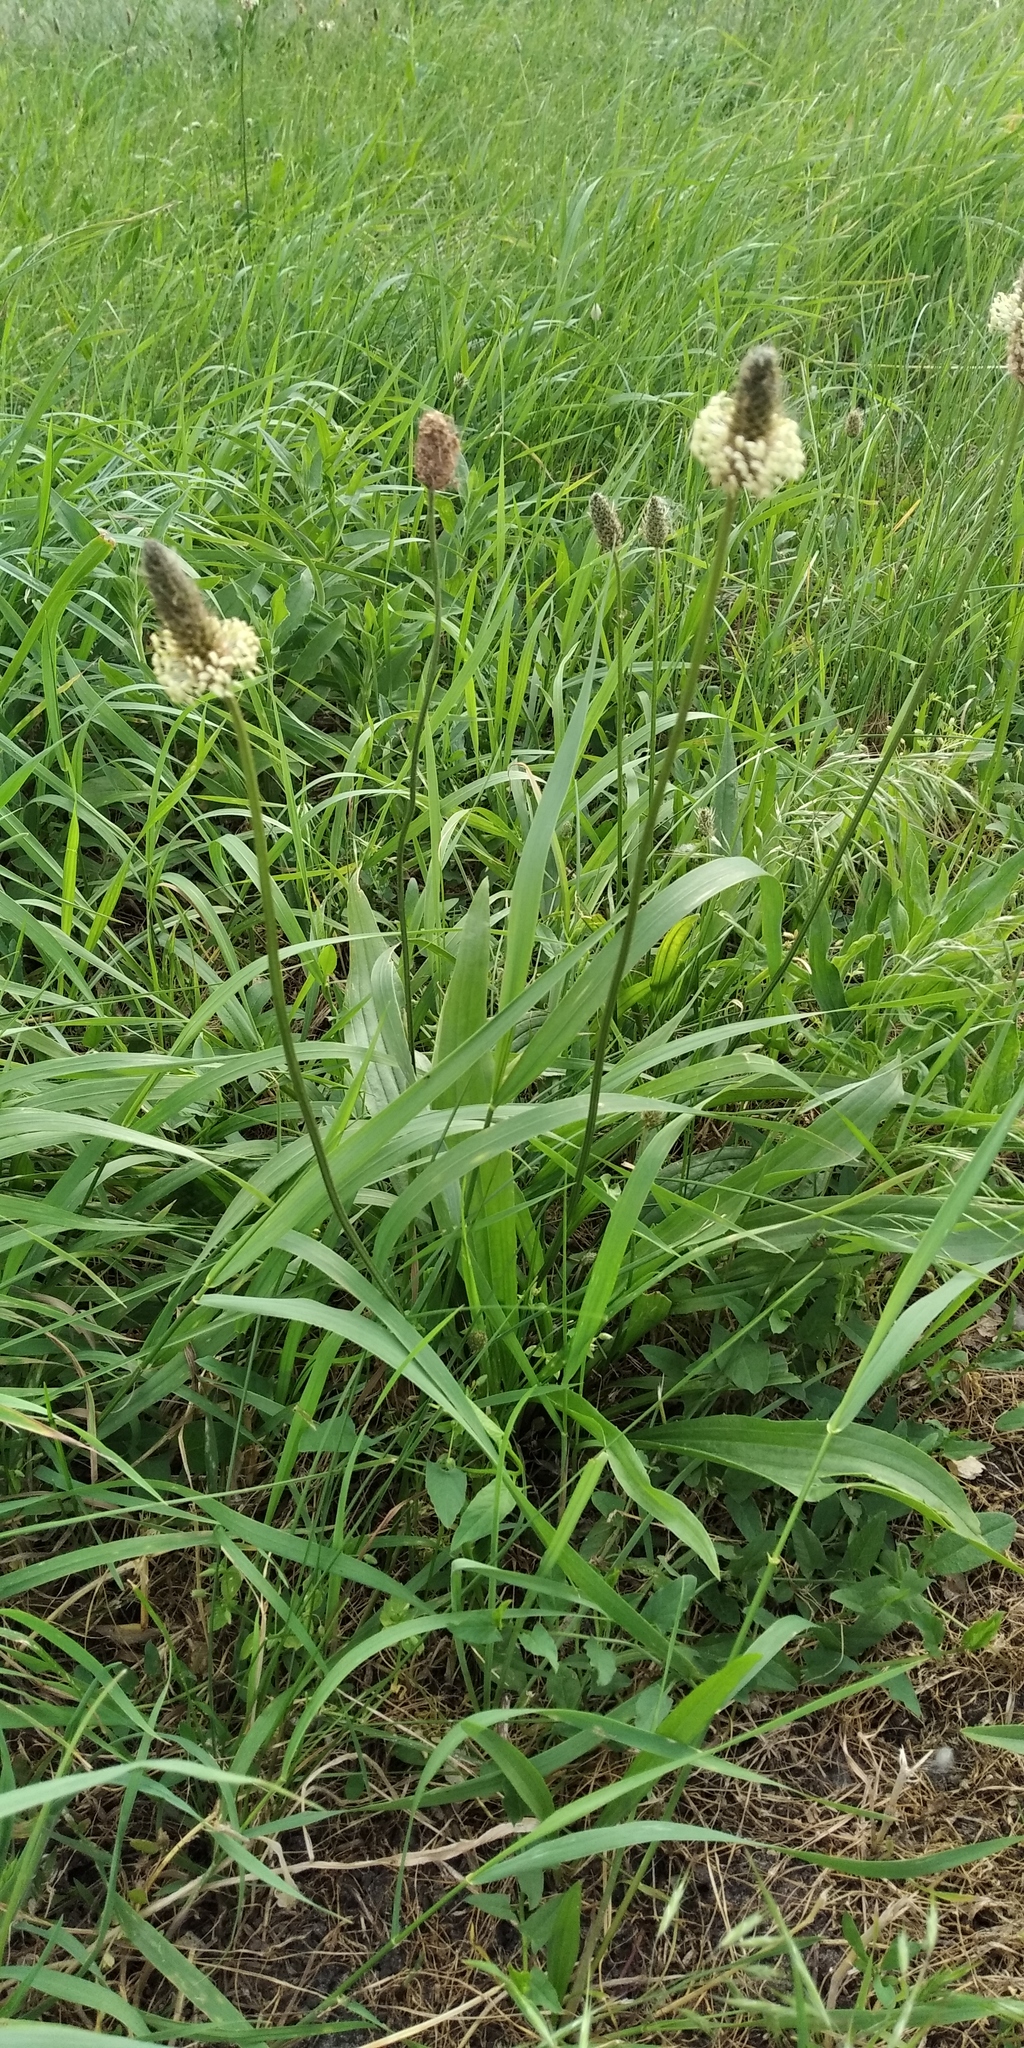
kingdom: Plantae
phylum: Tracheophyta
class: Magnoliopsida
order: Lamiales
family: Plantaginaceae
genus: Plantago
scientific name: Plantago lanceolata
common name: Ribwort plantain
